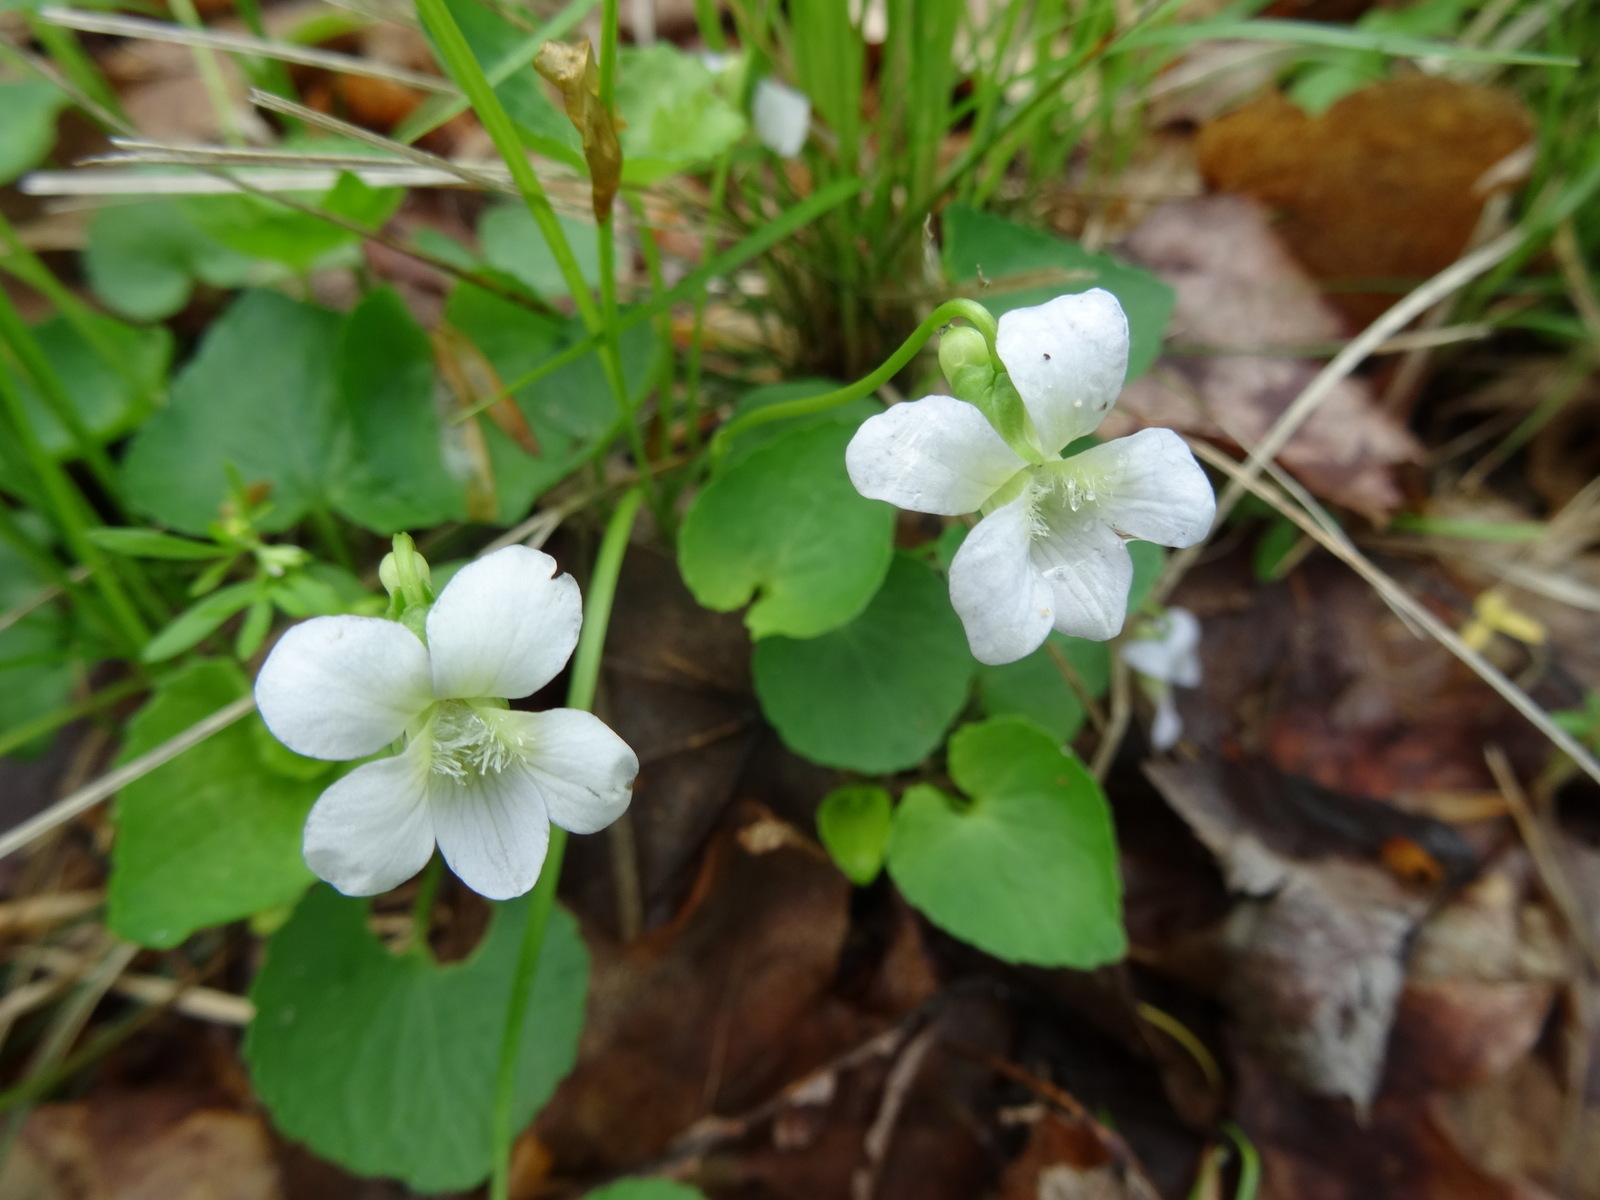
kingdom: Plantae
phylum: Tracheophyta
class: Magnoliopsida
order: Malpighiales
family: Violaceae
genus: Viola
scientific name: Viola sororia
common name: Dooryard violet
